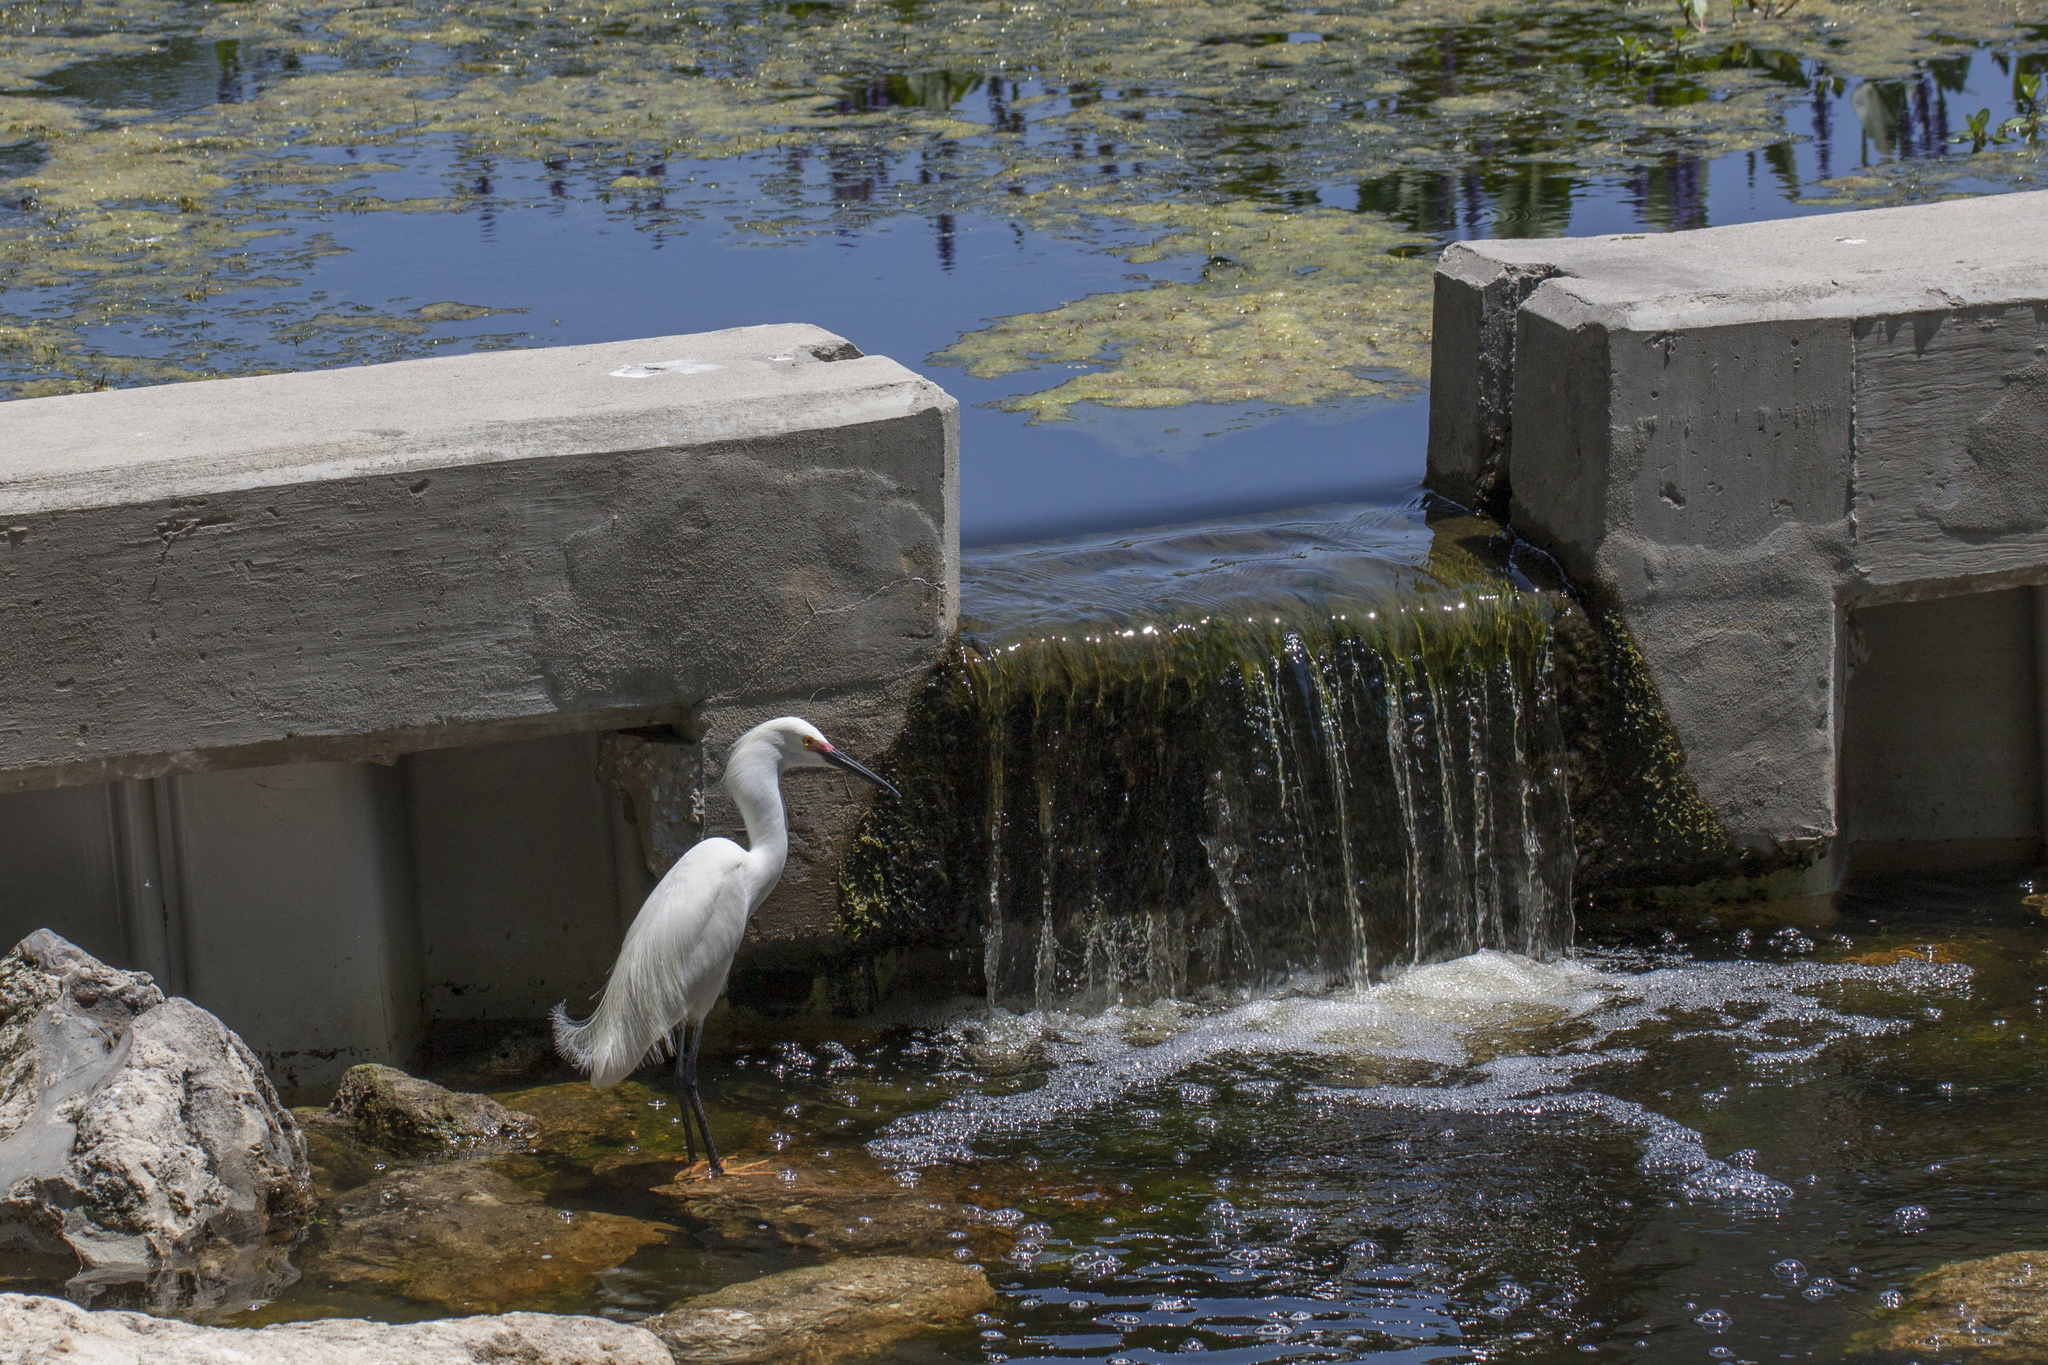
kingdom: Animalia
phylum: Chordata
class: Aves
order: Pelecaniformes
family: Ardeidae
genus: Egretta
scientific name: Egretta thula
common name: Snowy egret
